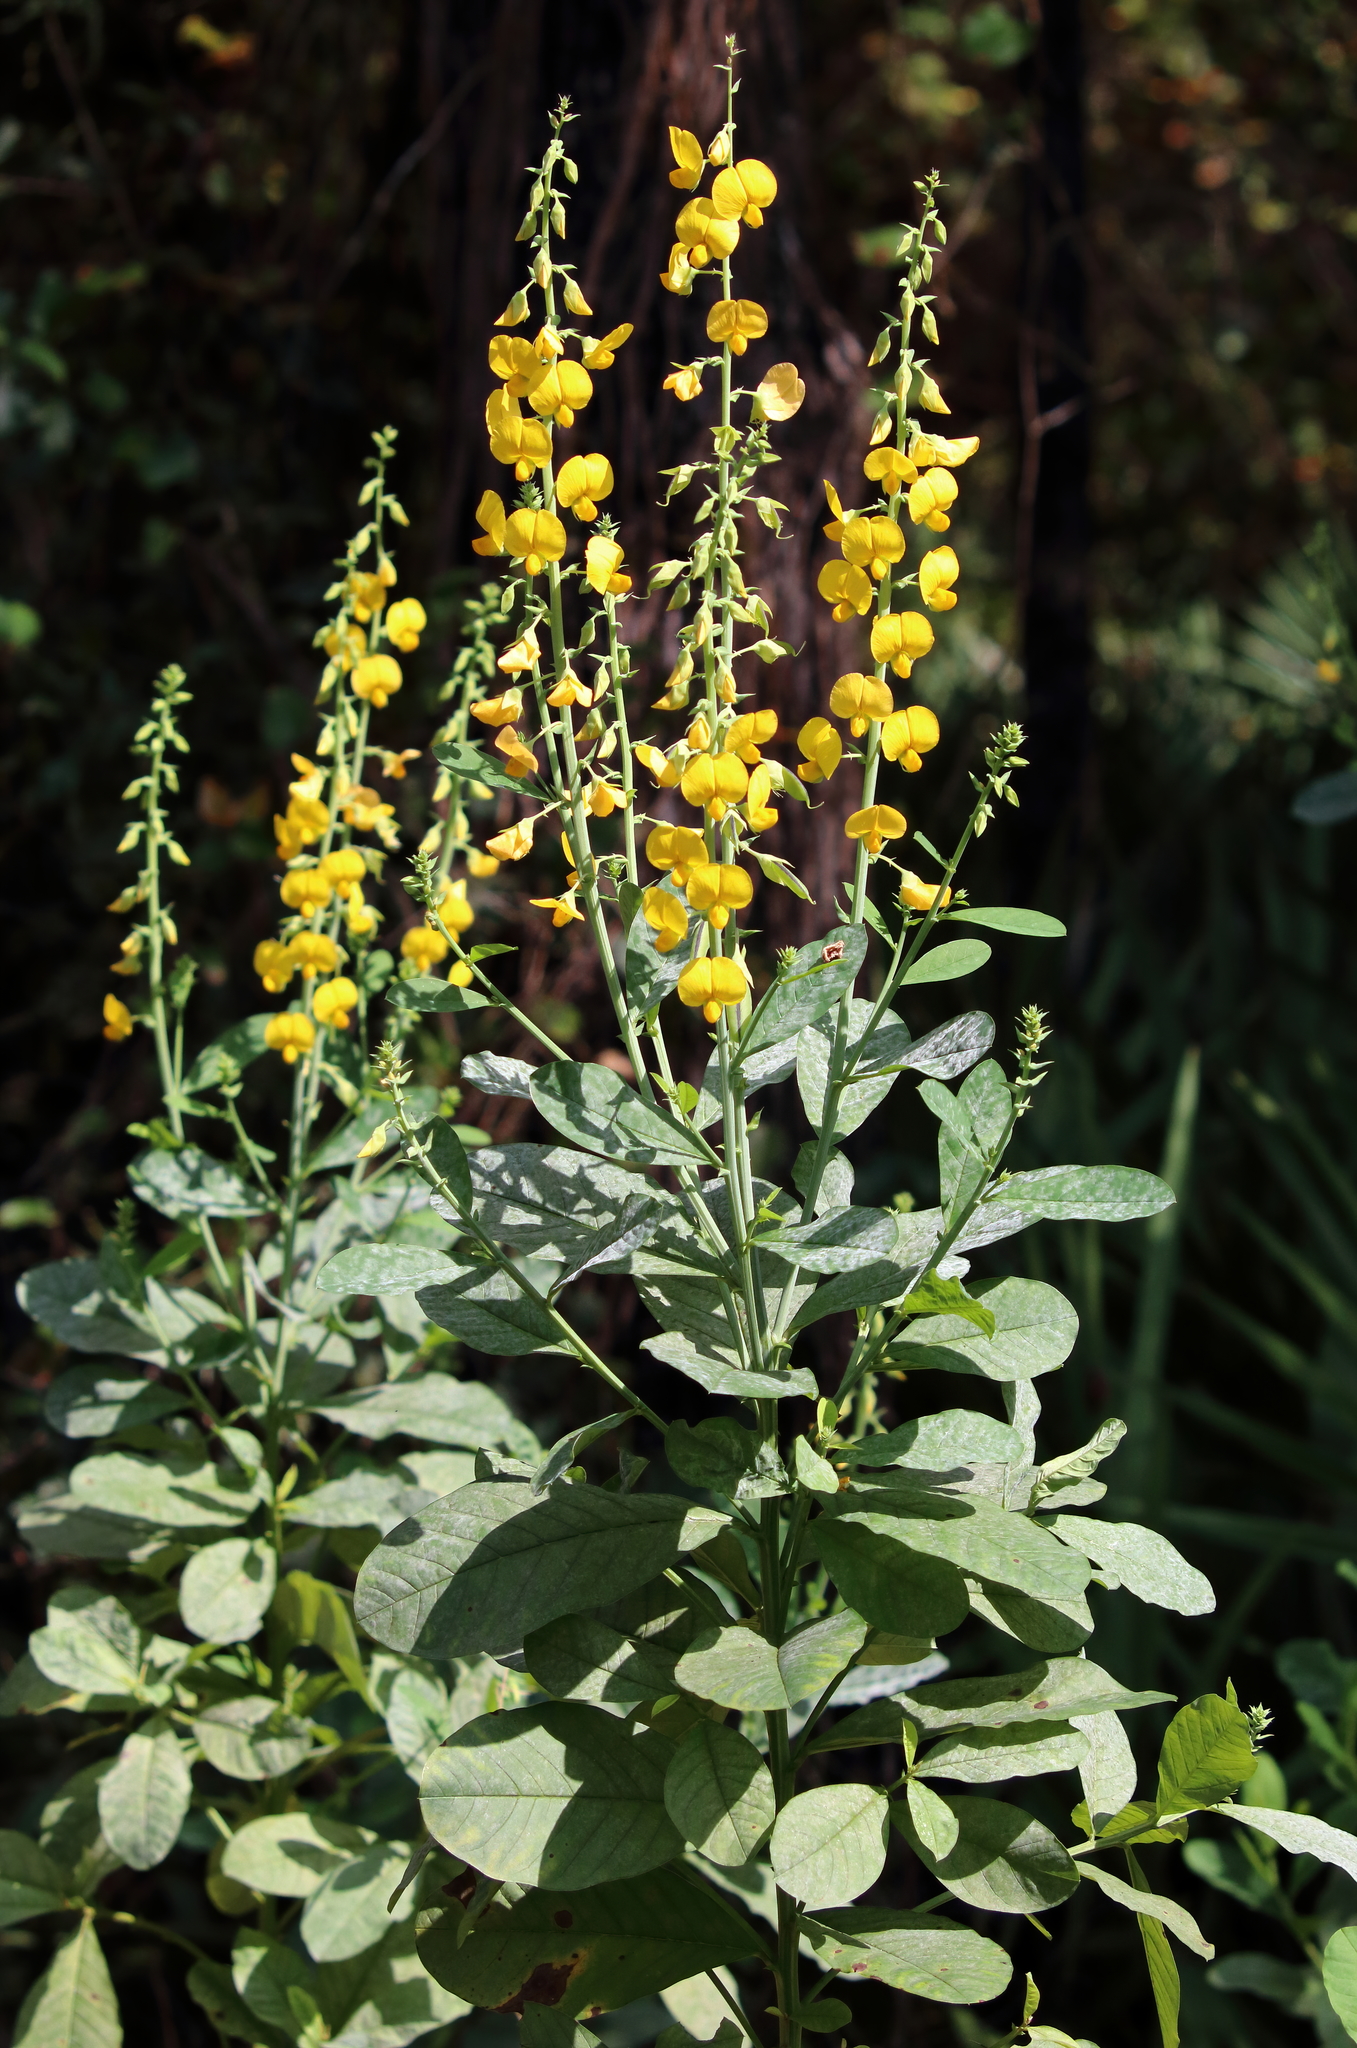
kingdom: Plantae
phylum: Tracheophyta
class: Magnoliopsida
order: Fabales
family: Fabaceae
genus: Crotalaria
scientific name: Crotalaria spectabilis
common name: Showy rattlebox
